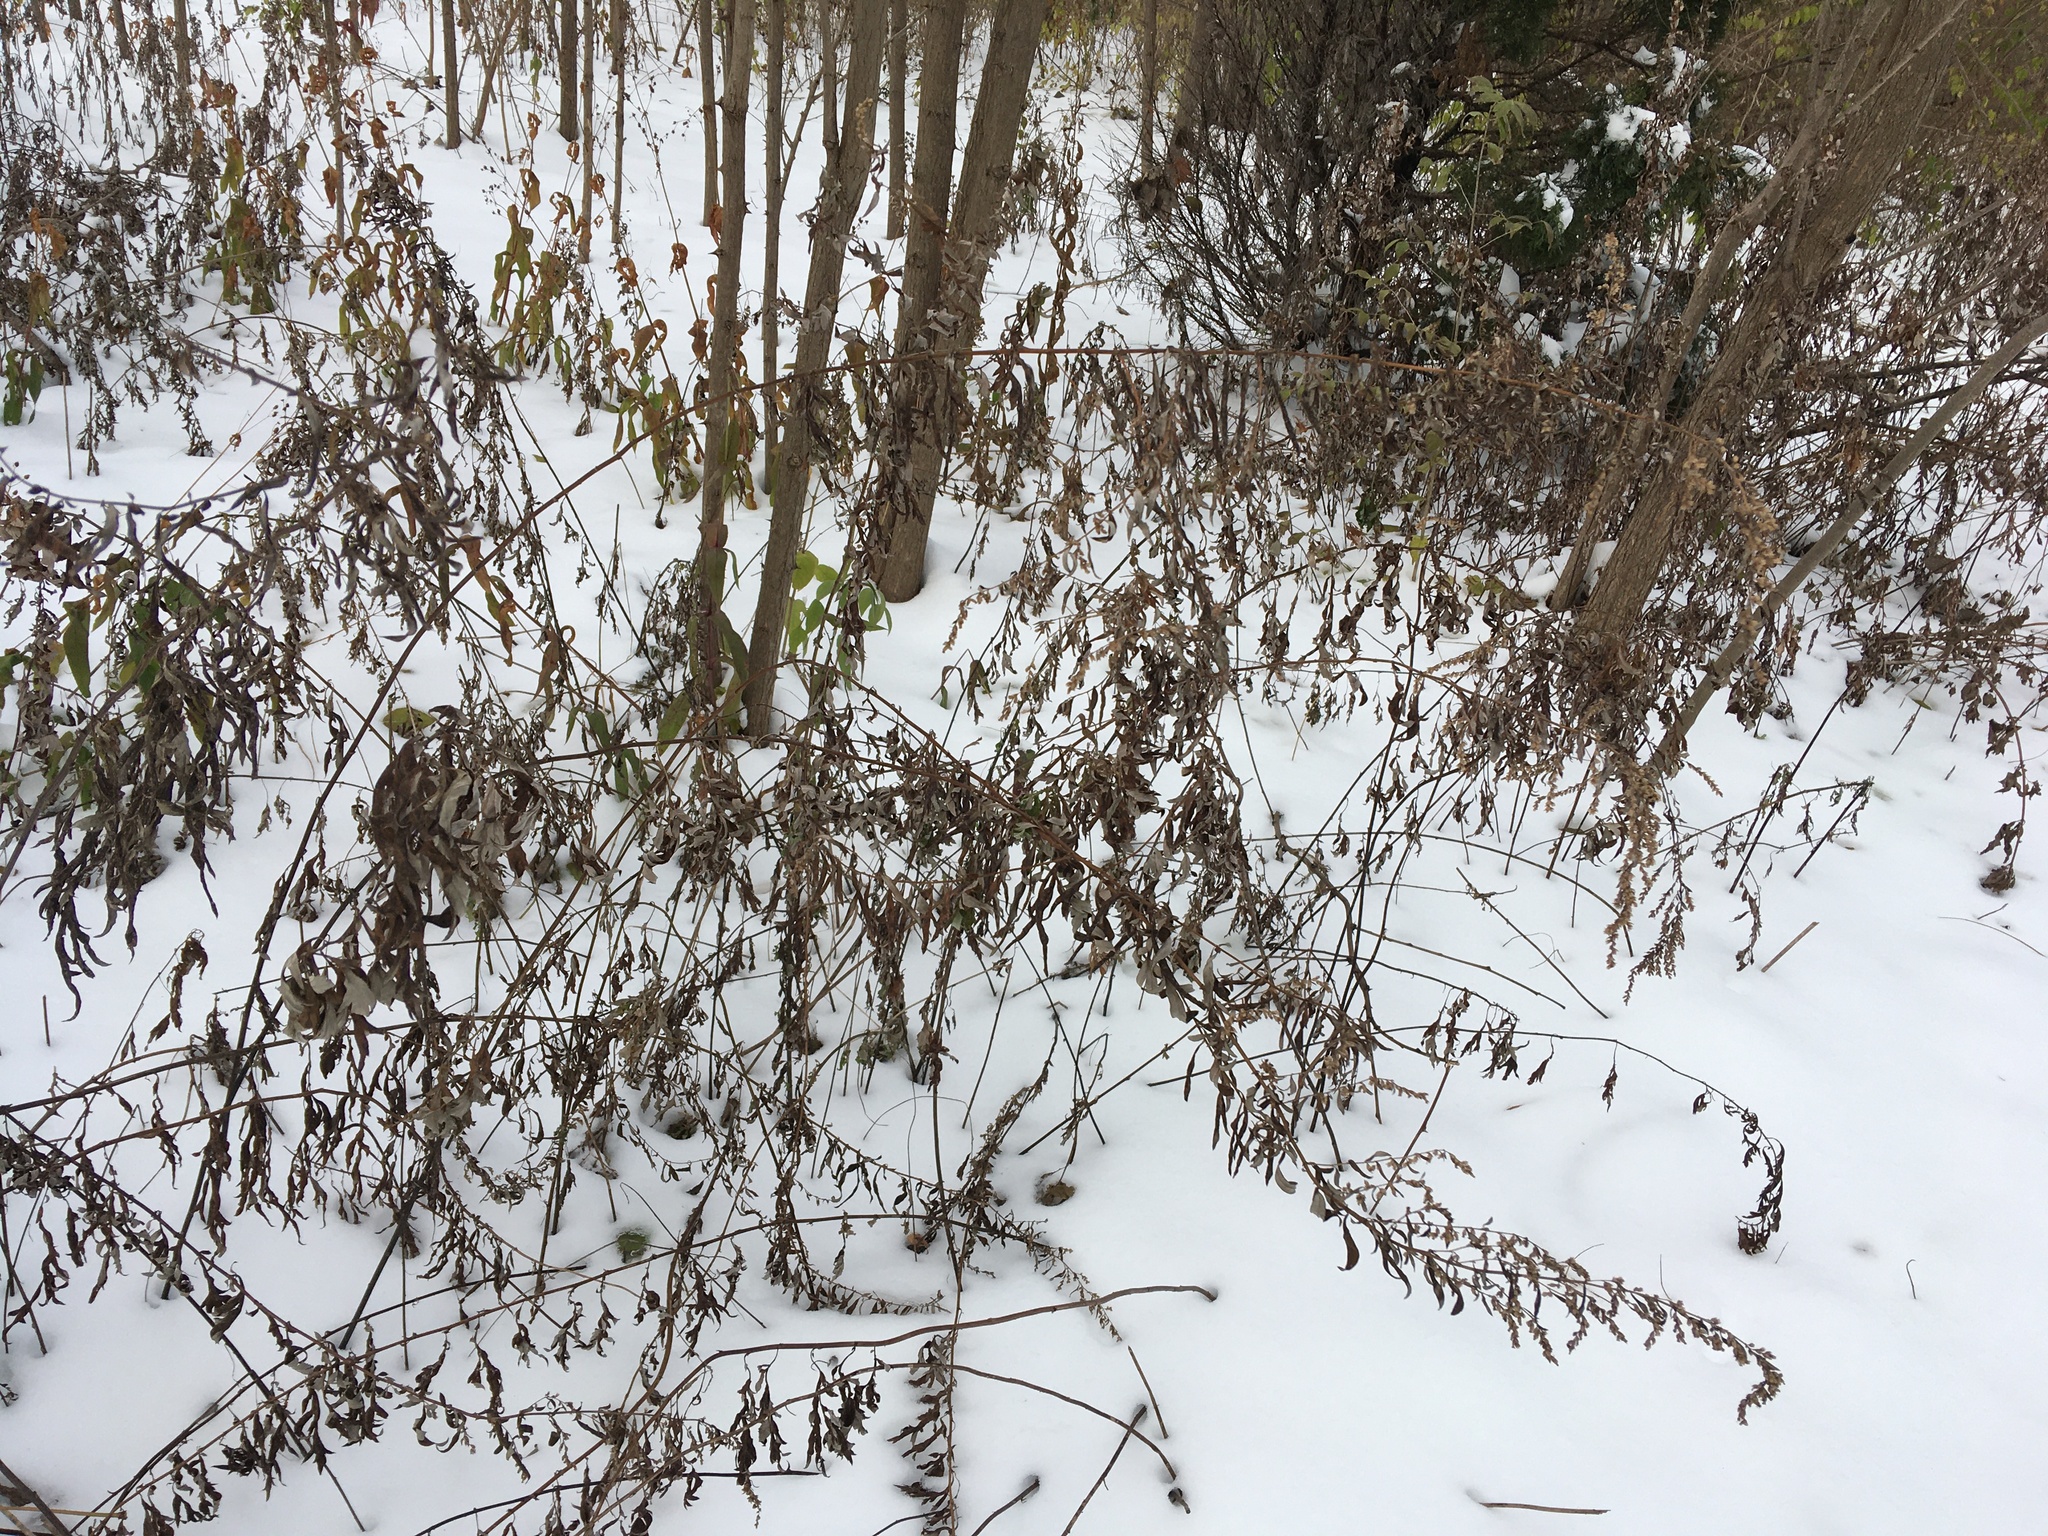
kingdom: Plantae
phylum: Tracheophyta
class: Magnoliopsida
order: Asterales
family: Asteraceae
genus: Artemisia
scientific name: Artemisia vulgaris
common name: Mugwort
